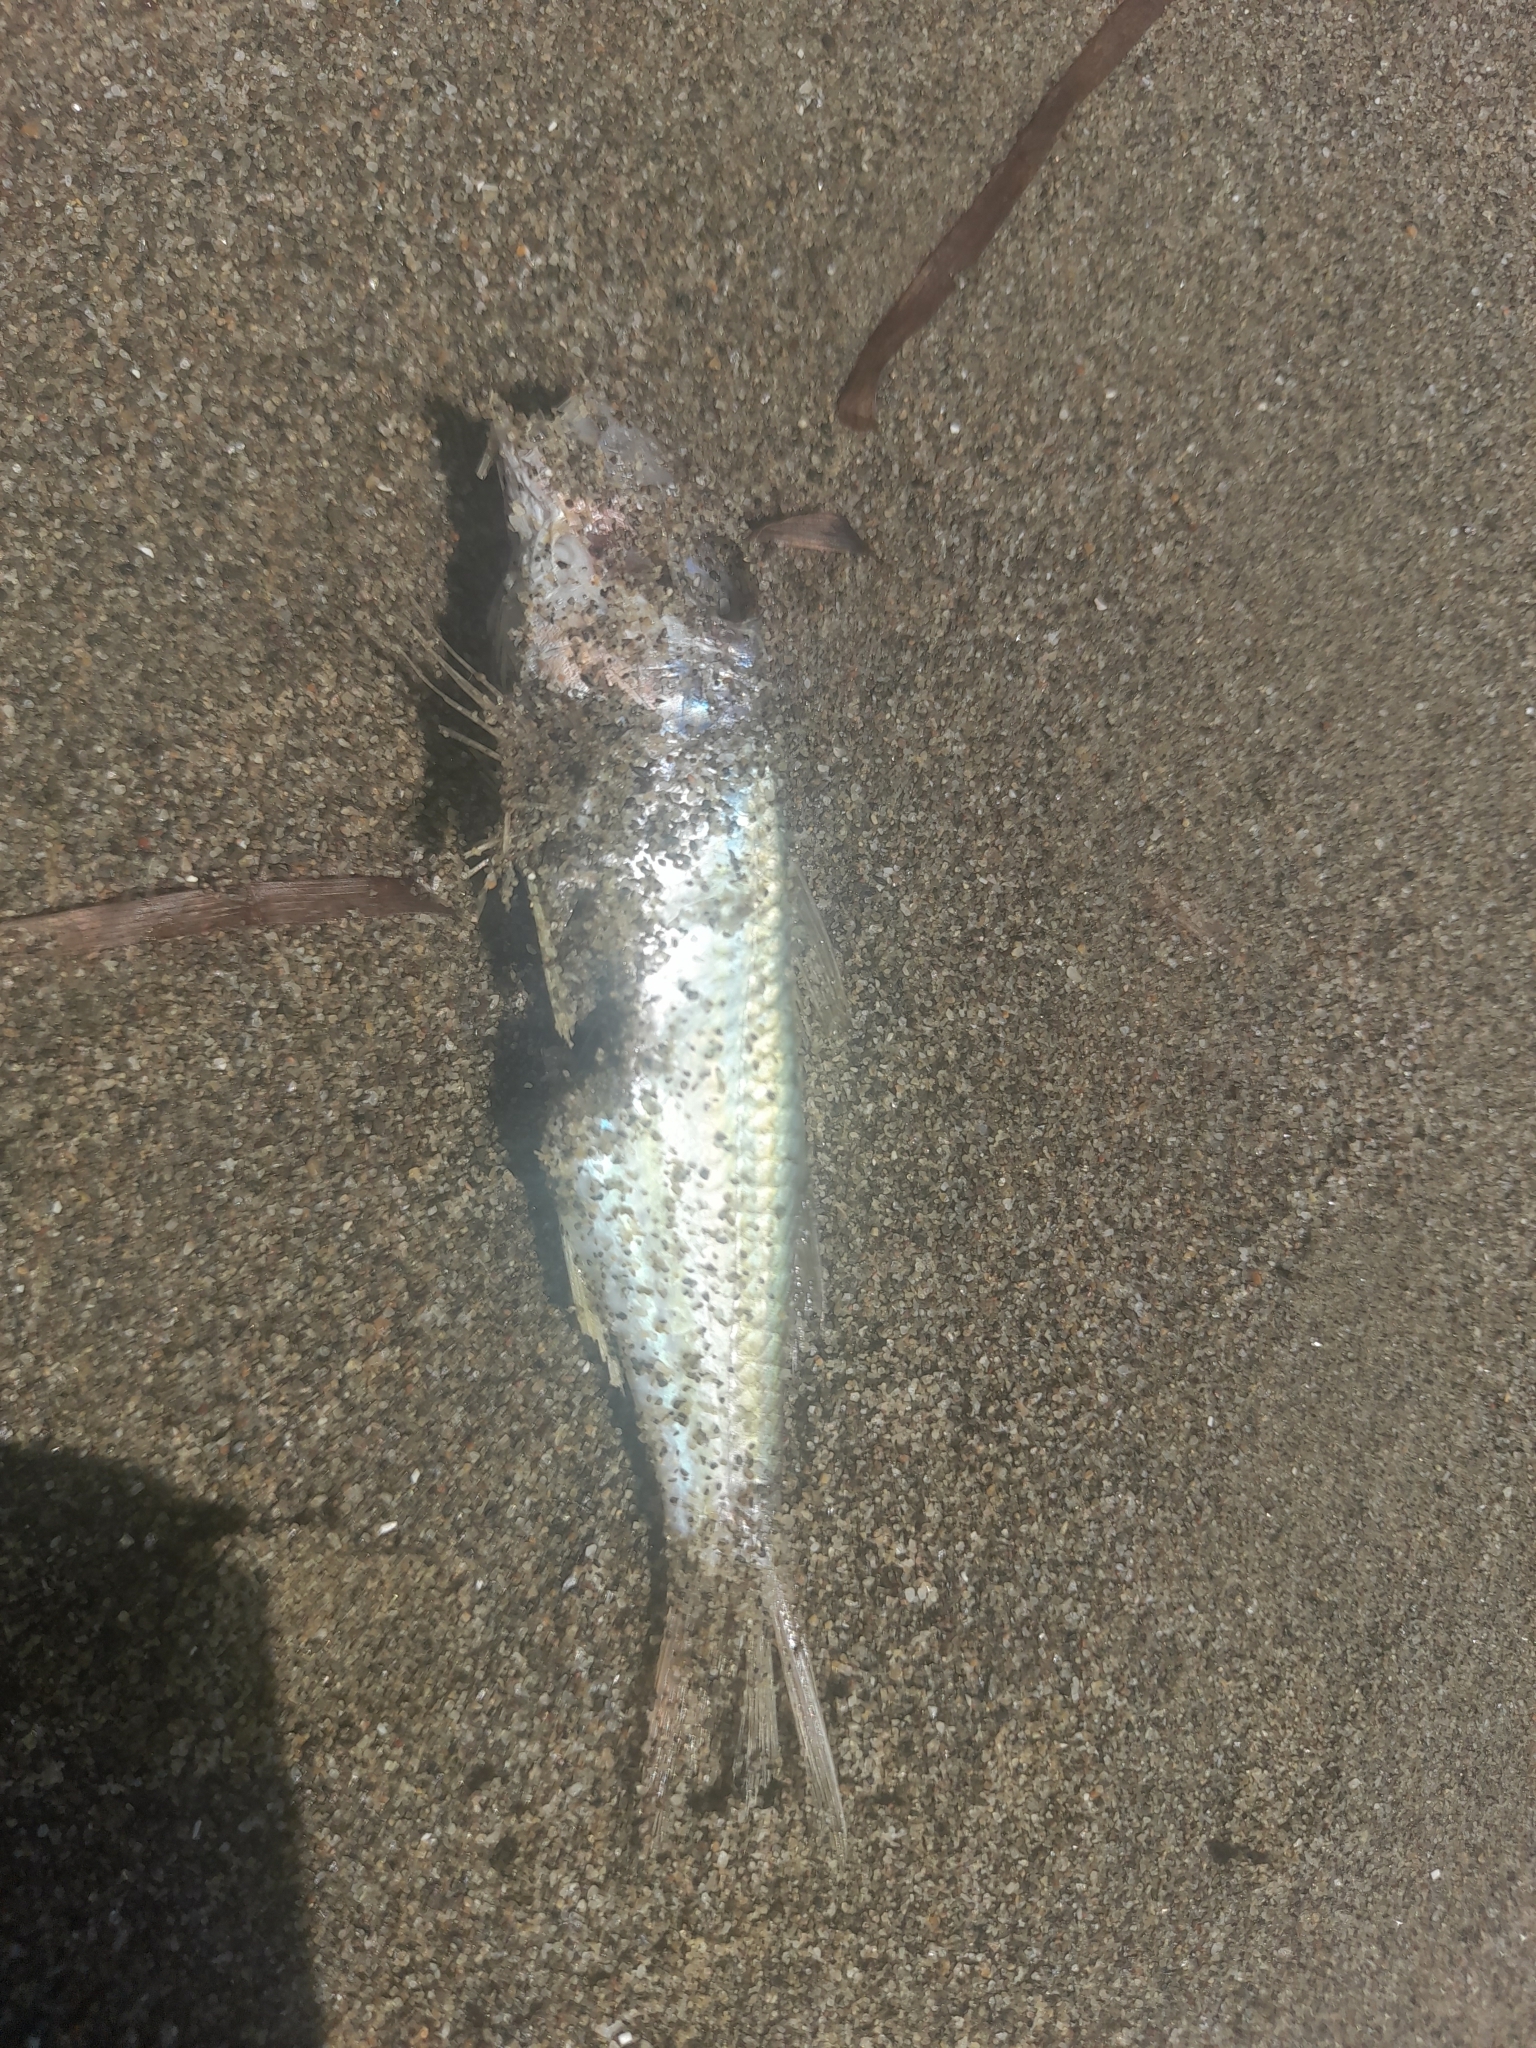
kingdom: Animalia
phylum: Chordata
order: Perciformes
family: Mullidae
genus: Mullus
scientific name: Mullus barbatus
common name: Blunt-snouted mullet
